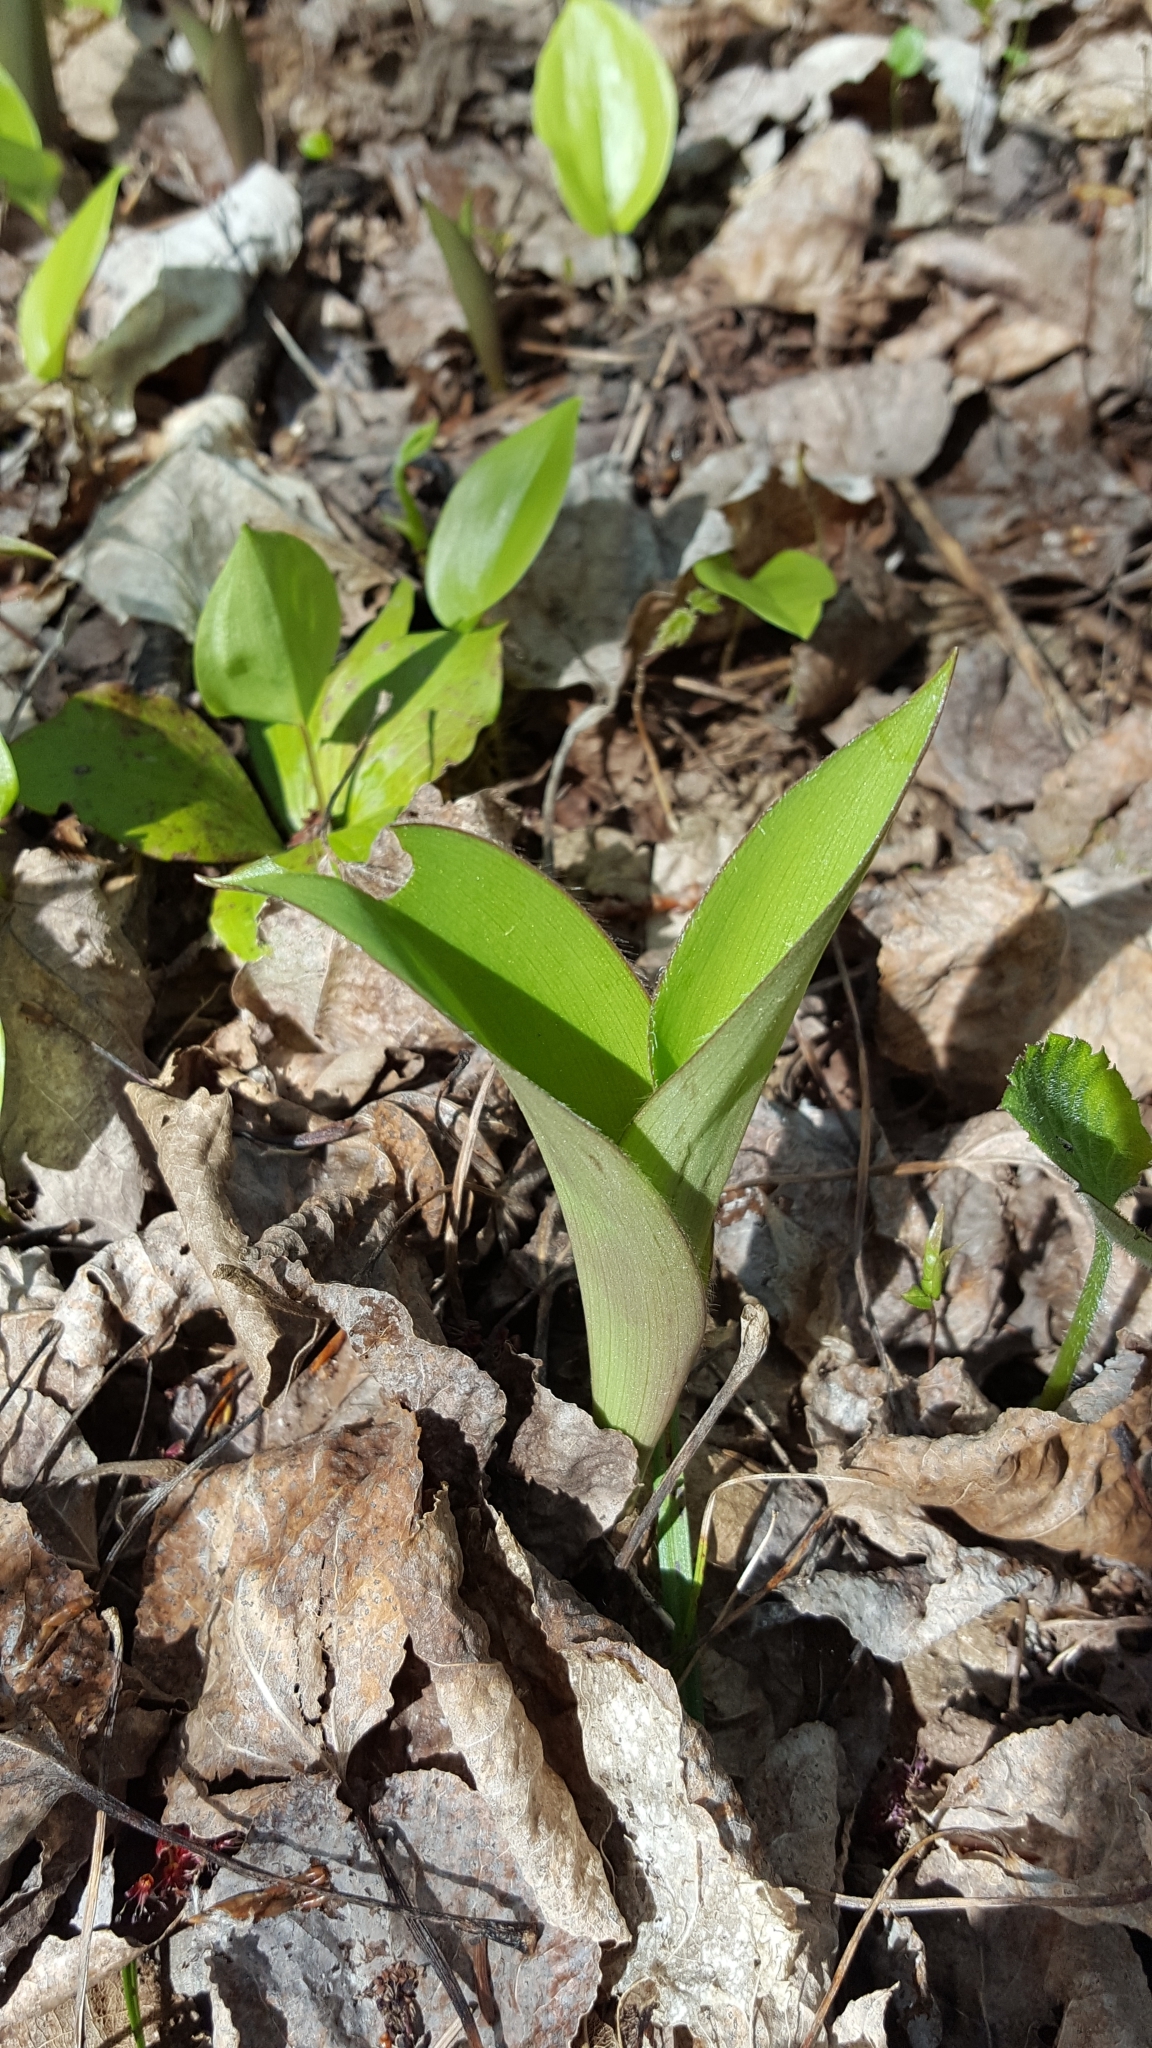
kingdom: Plantae
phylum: Tracheophyta
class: Liliopsida
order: Liliales
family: Liliaceae
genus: Clintonia
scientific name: Clintonia borealis
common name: Yellow clintonia
